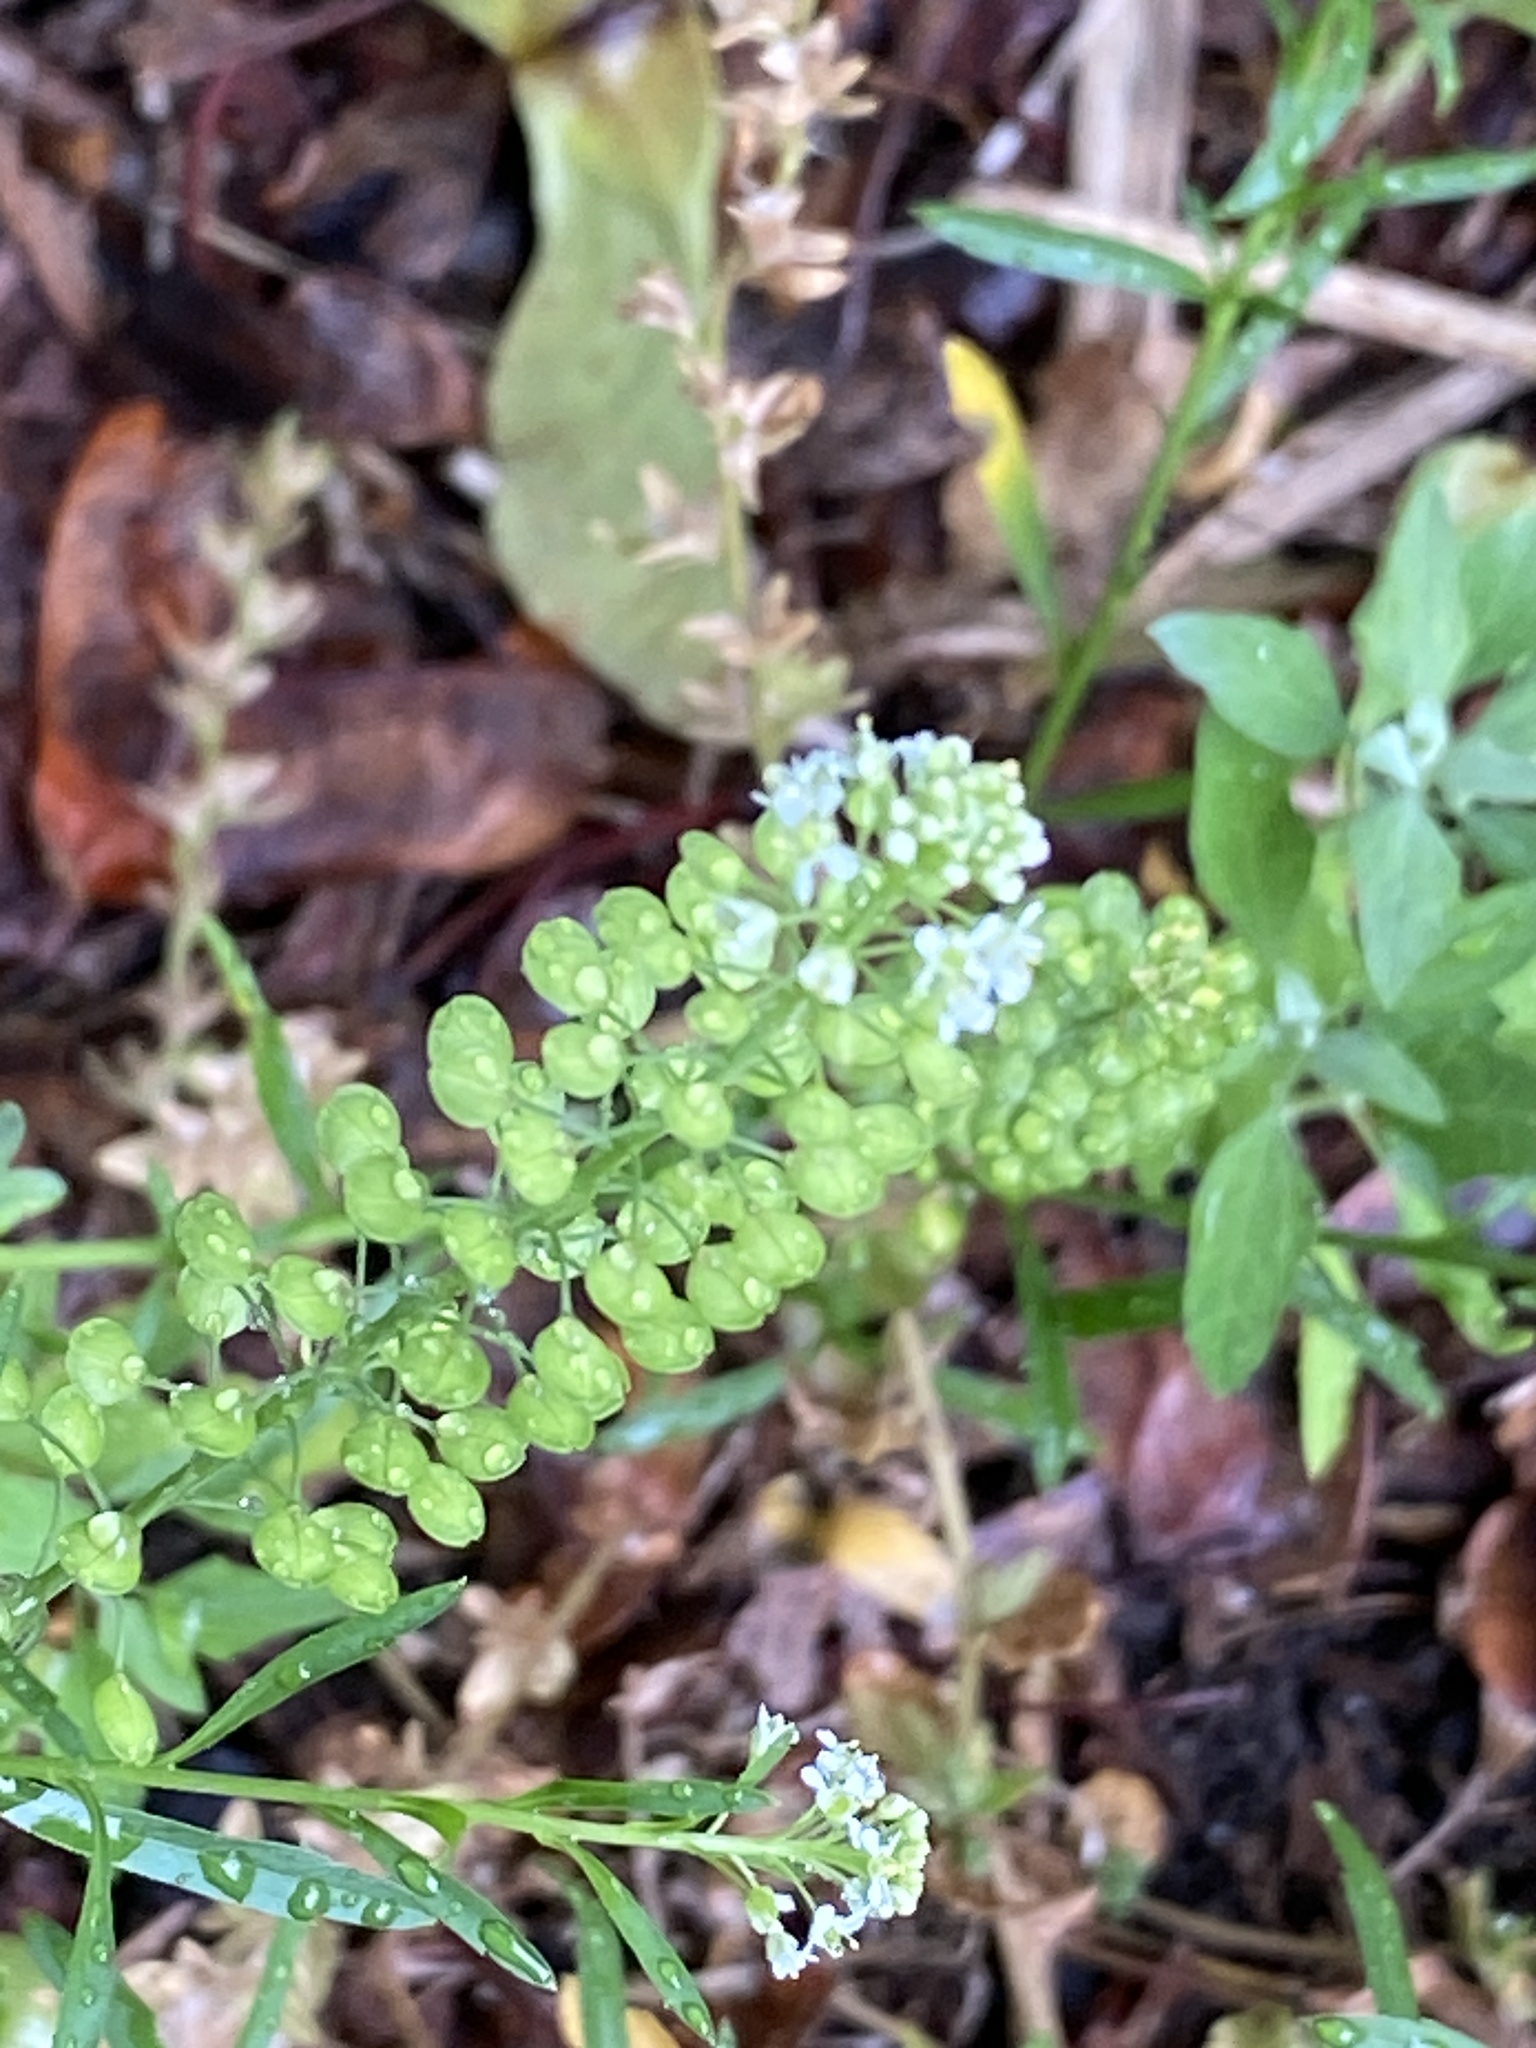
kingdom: Plantae
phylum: Tracheophyta
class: Magnoliopsida
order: Brassicales
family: Brassicaceae
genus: Lepidium
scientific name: Lepidium virginicum
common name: Least pepperwort
